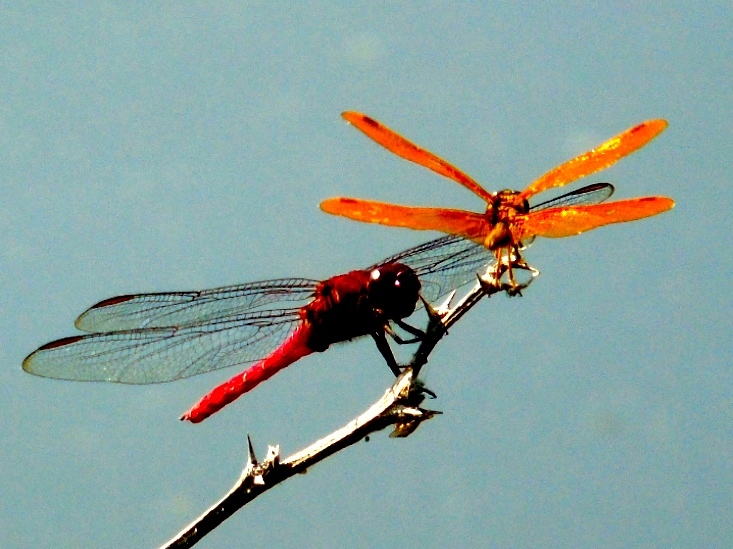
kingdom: Animalia
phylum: Arthropoda
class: Insecta
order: Odonata
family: Libellulidae
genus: Perithemis
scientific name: Perithemis
